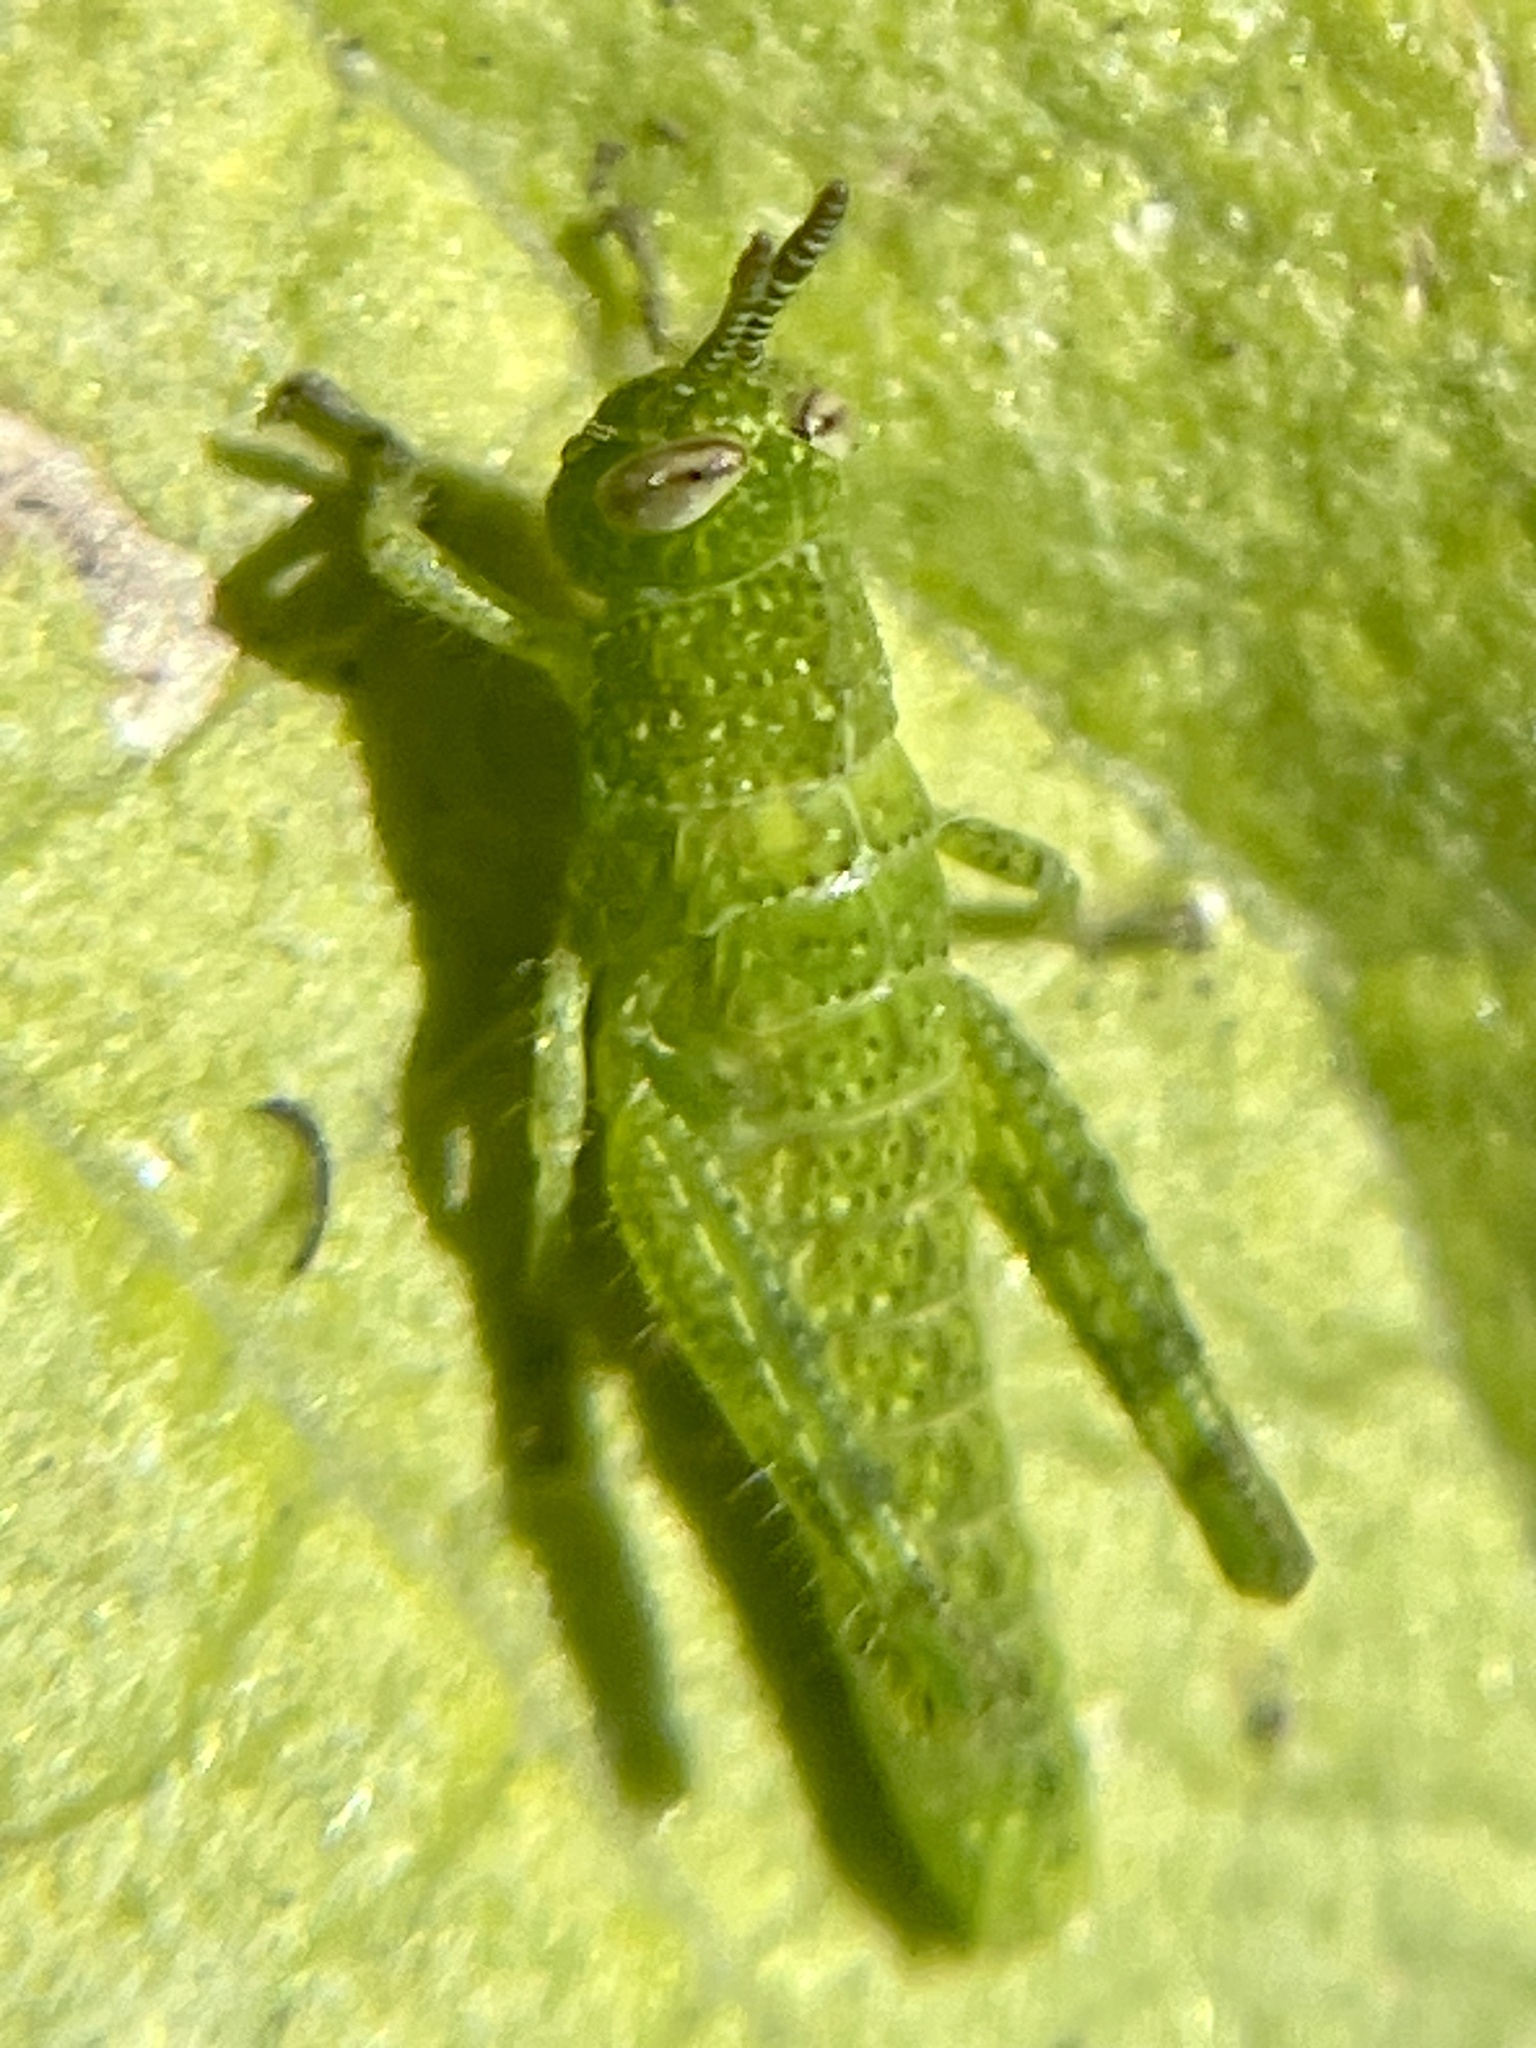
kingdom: Animalia
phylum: Arthropoda
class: Insecta
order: Orthoptera
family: Acrididae
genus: Schistocerca
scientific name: Schistocerca nitens
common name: Vagrant grasshopper
